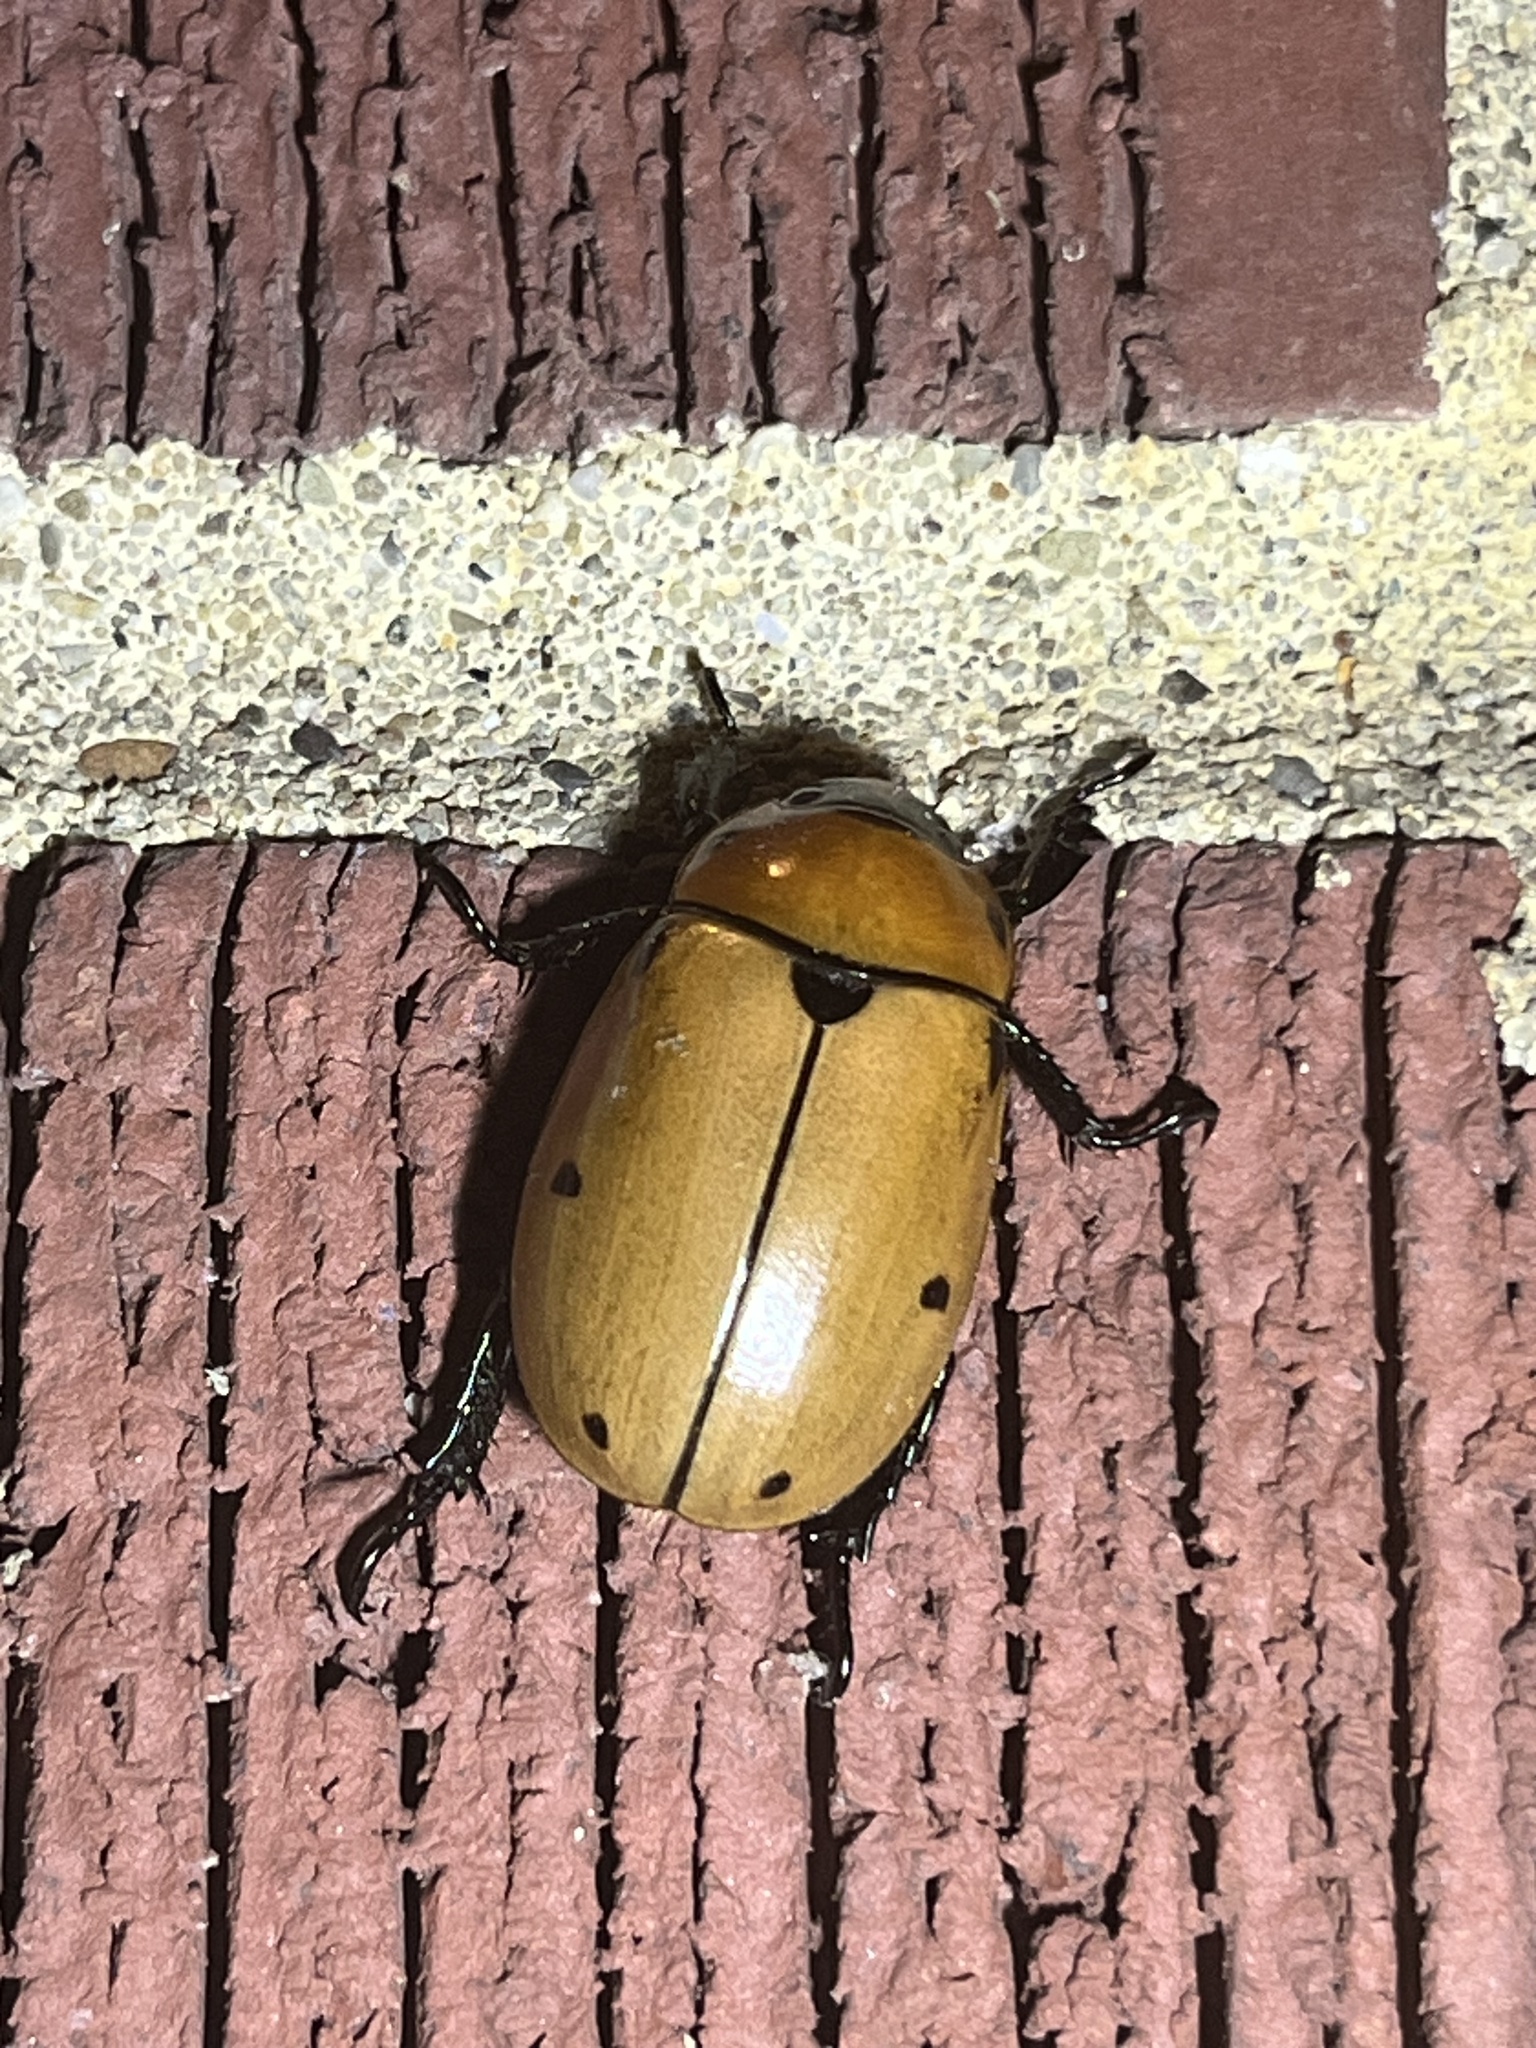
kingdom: Animalia
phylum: Arthropoda
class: Insecta
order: Coleoptera
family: Scarabaeidae
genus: Pelidnota
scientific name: Pelidnota punctata
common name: Grapevine beetle
